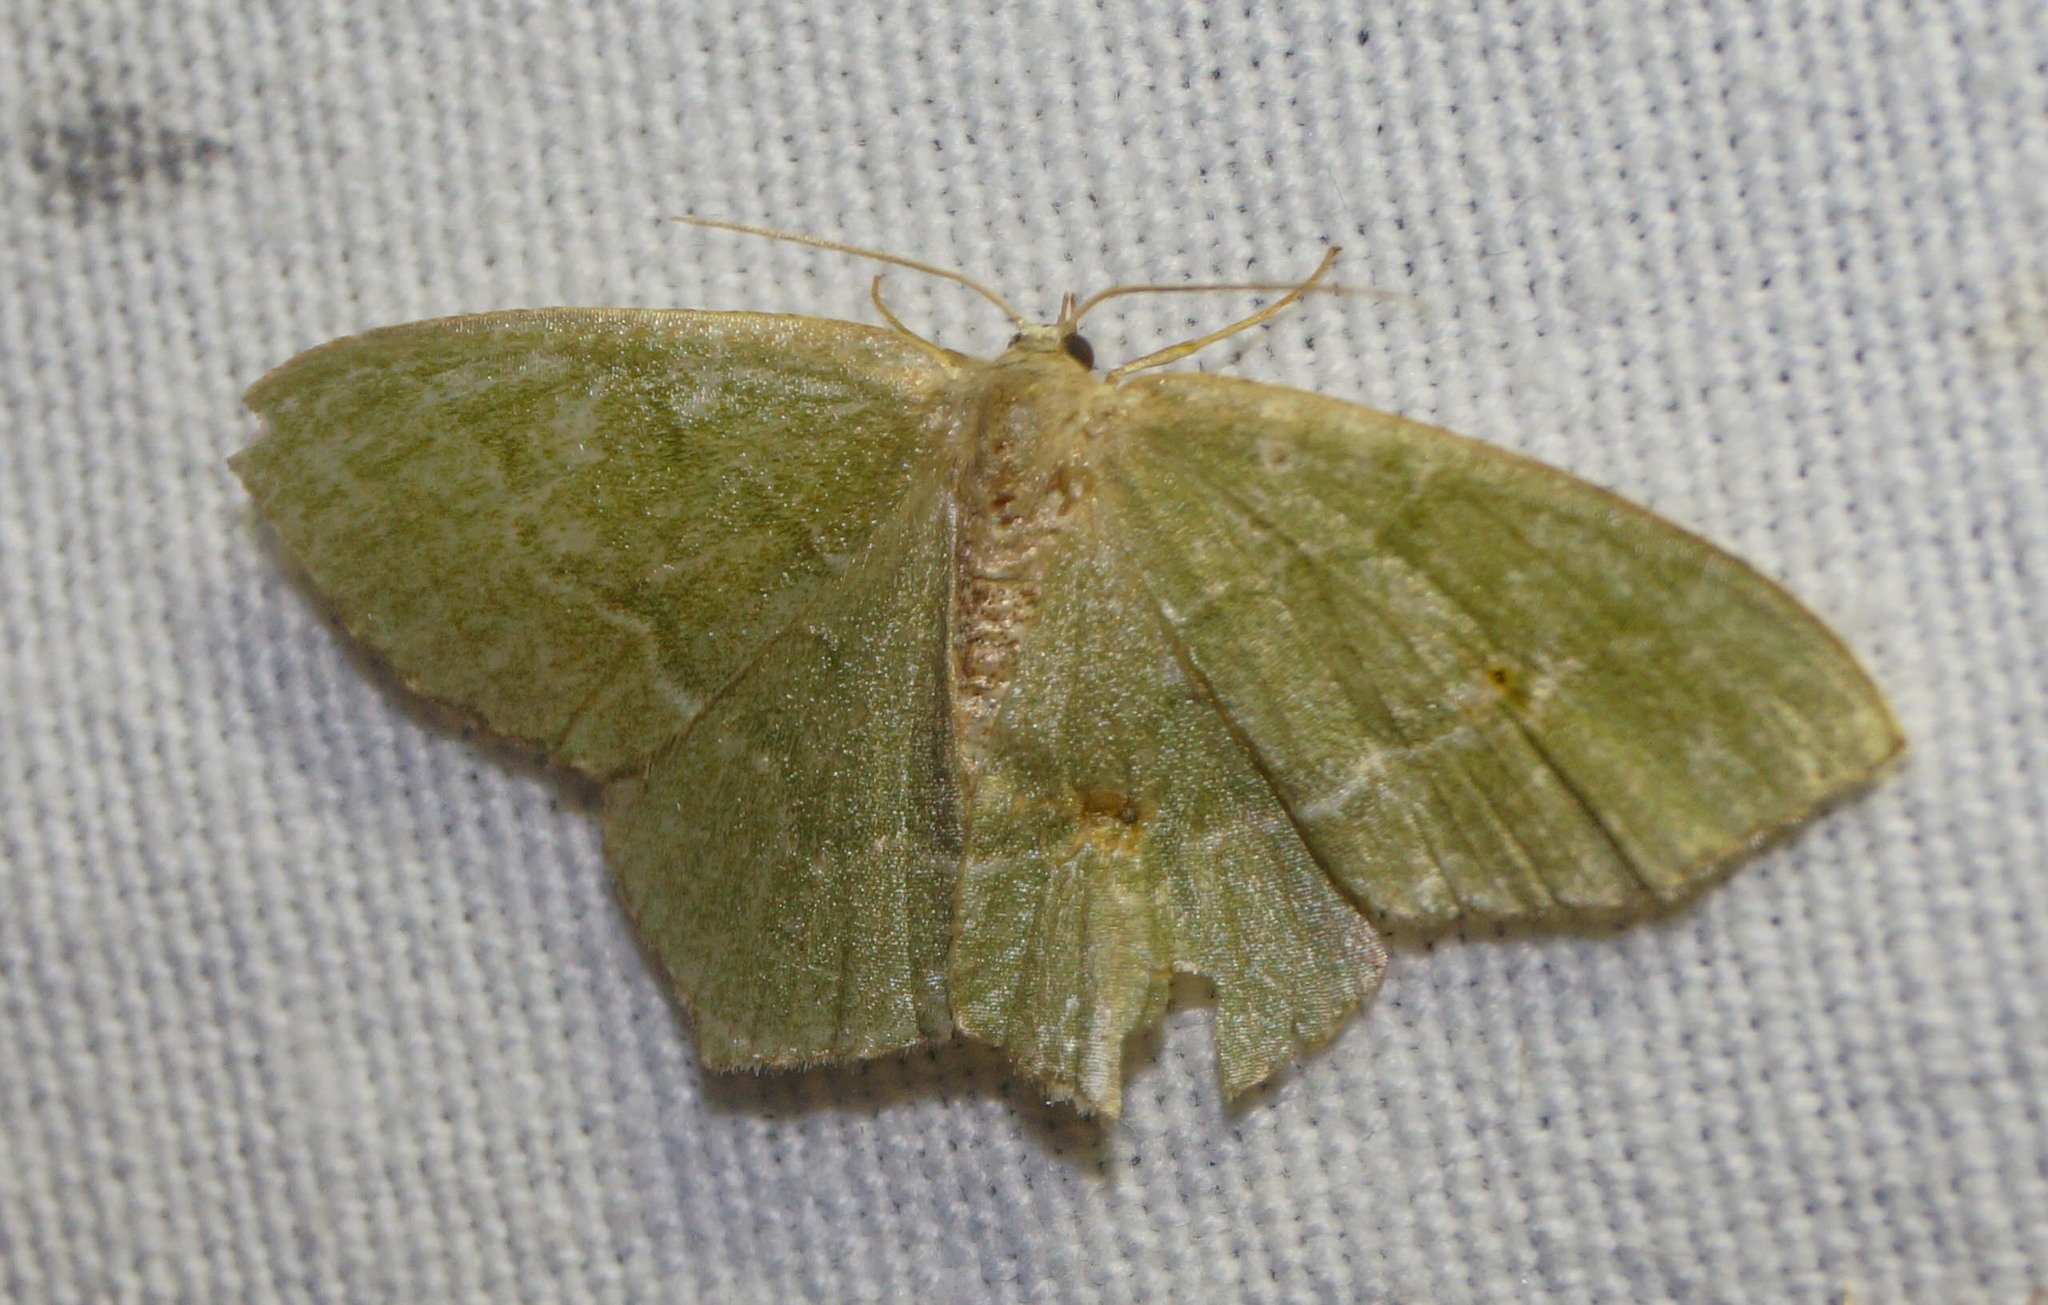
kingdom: Animalia
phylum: Arthropoda
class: Insecta
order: Lepidoptera
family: Geometridae
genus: Hemithea
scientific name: Hemithea aestivaria
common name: Common emerald
